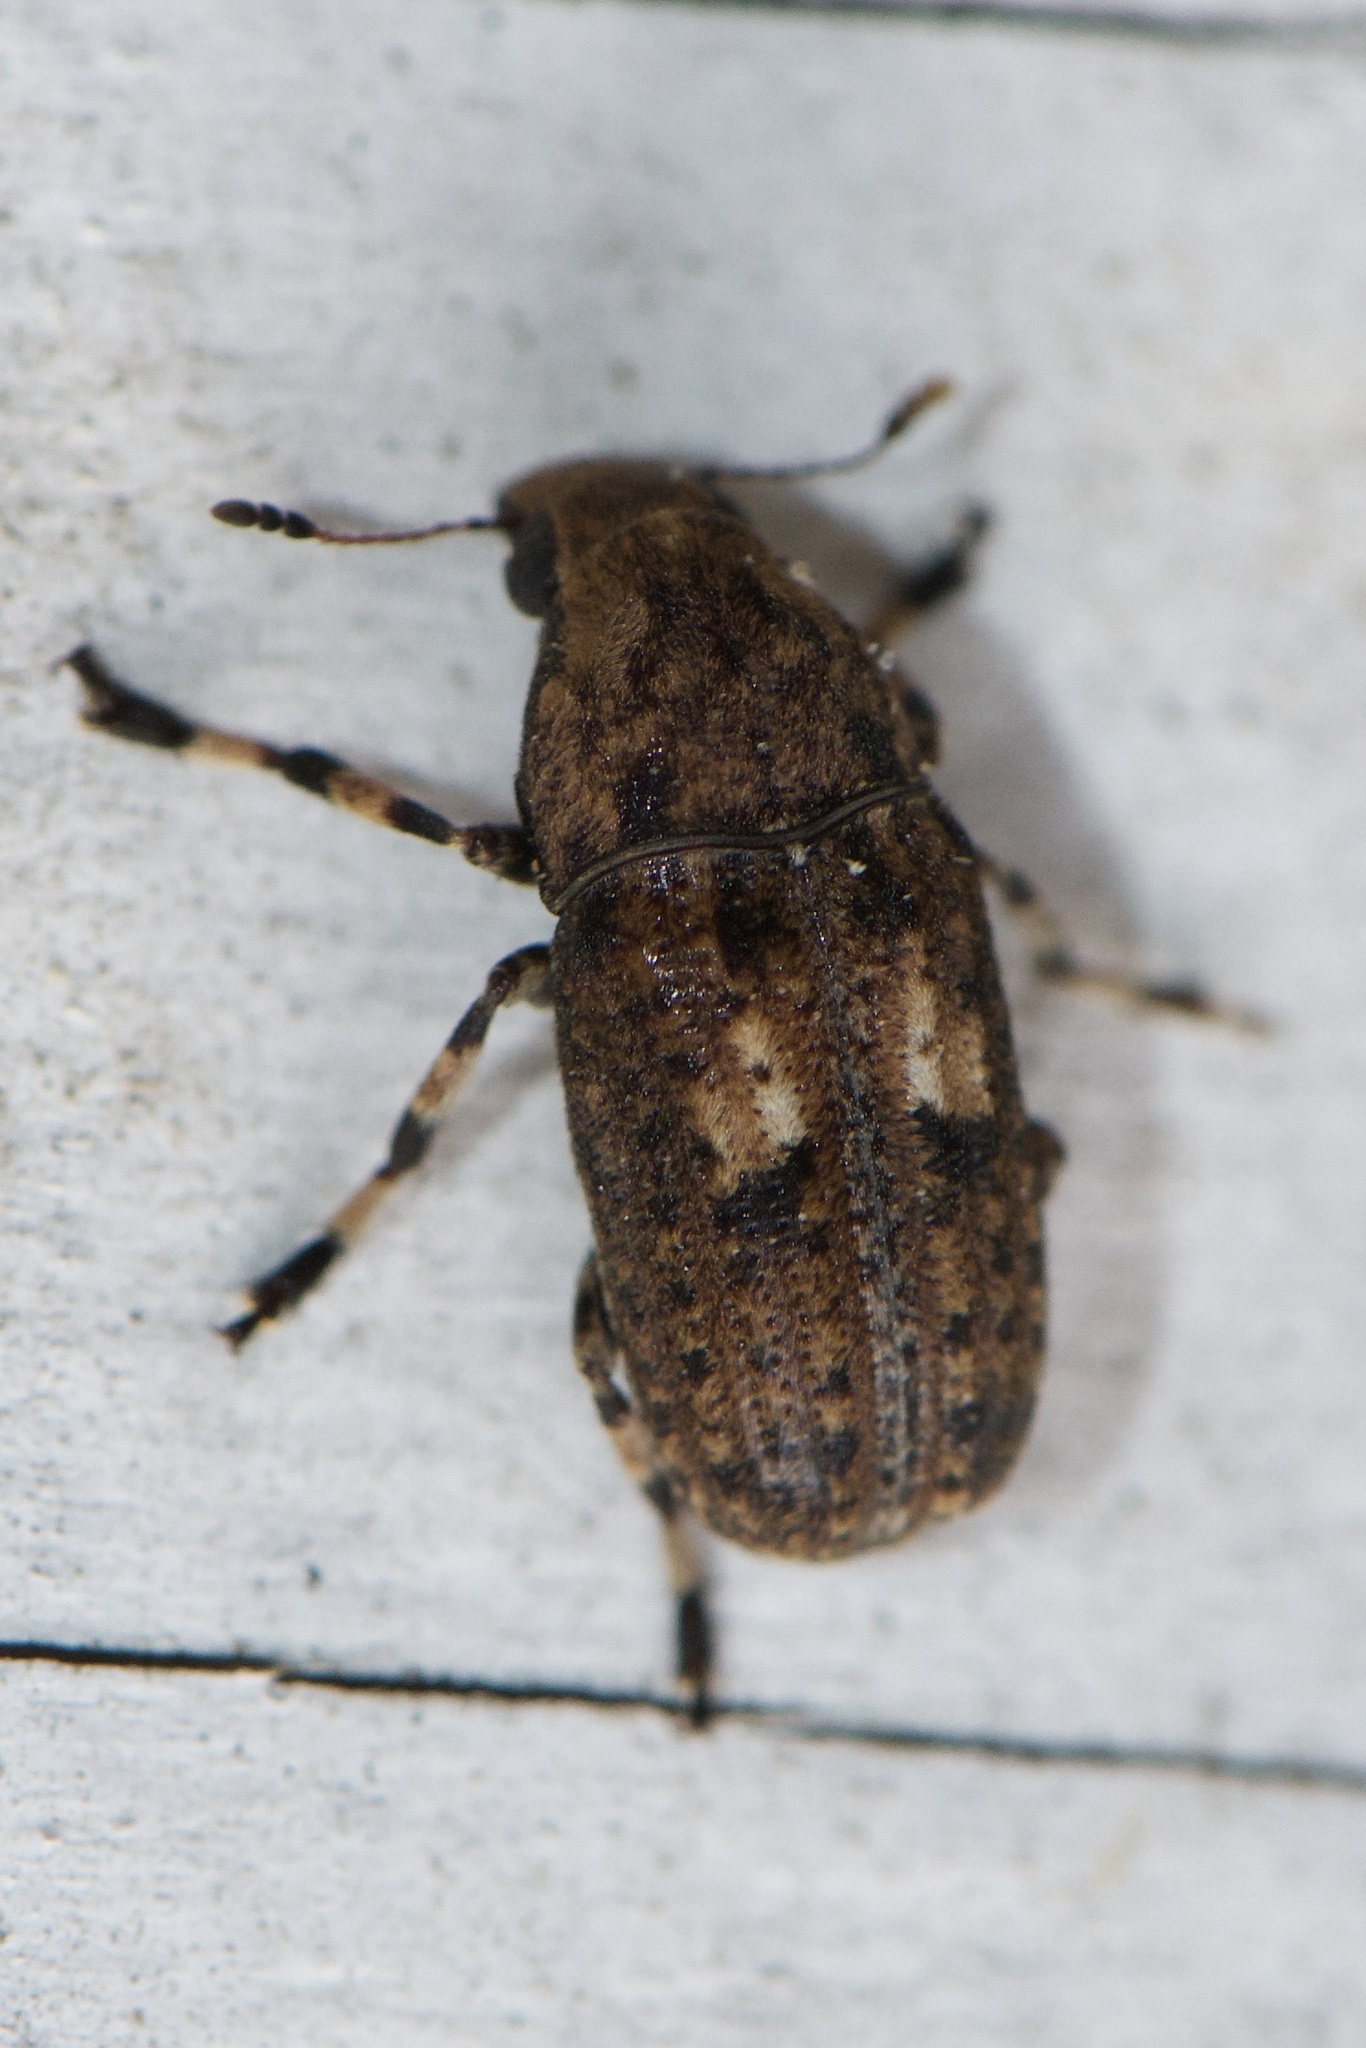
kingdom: Animalia
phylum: Arthropoda
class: Insecta
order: Coleoptera
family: Anthribidae
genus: Euparius
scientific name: Euparius marmoreus
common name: Marbled fungus weevil
